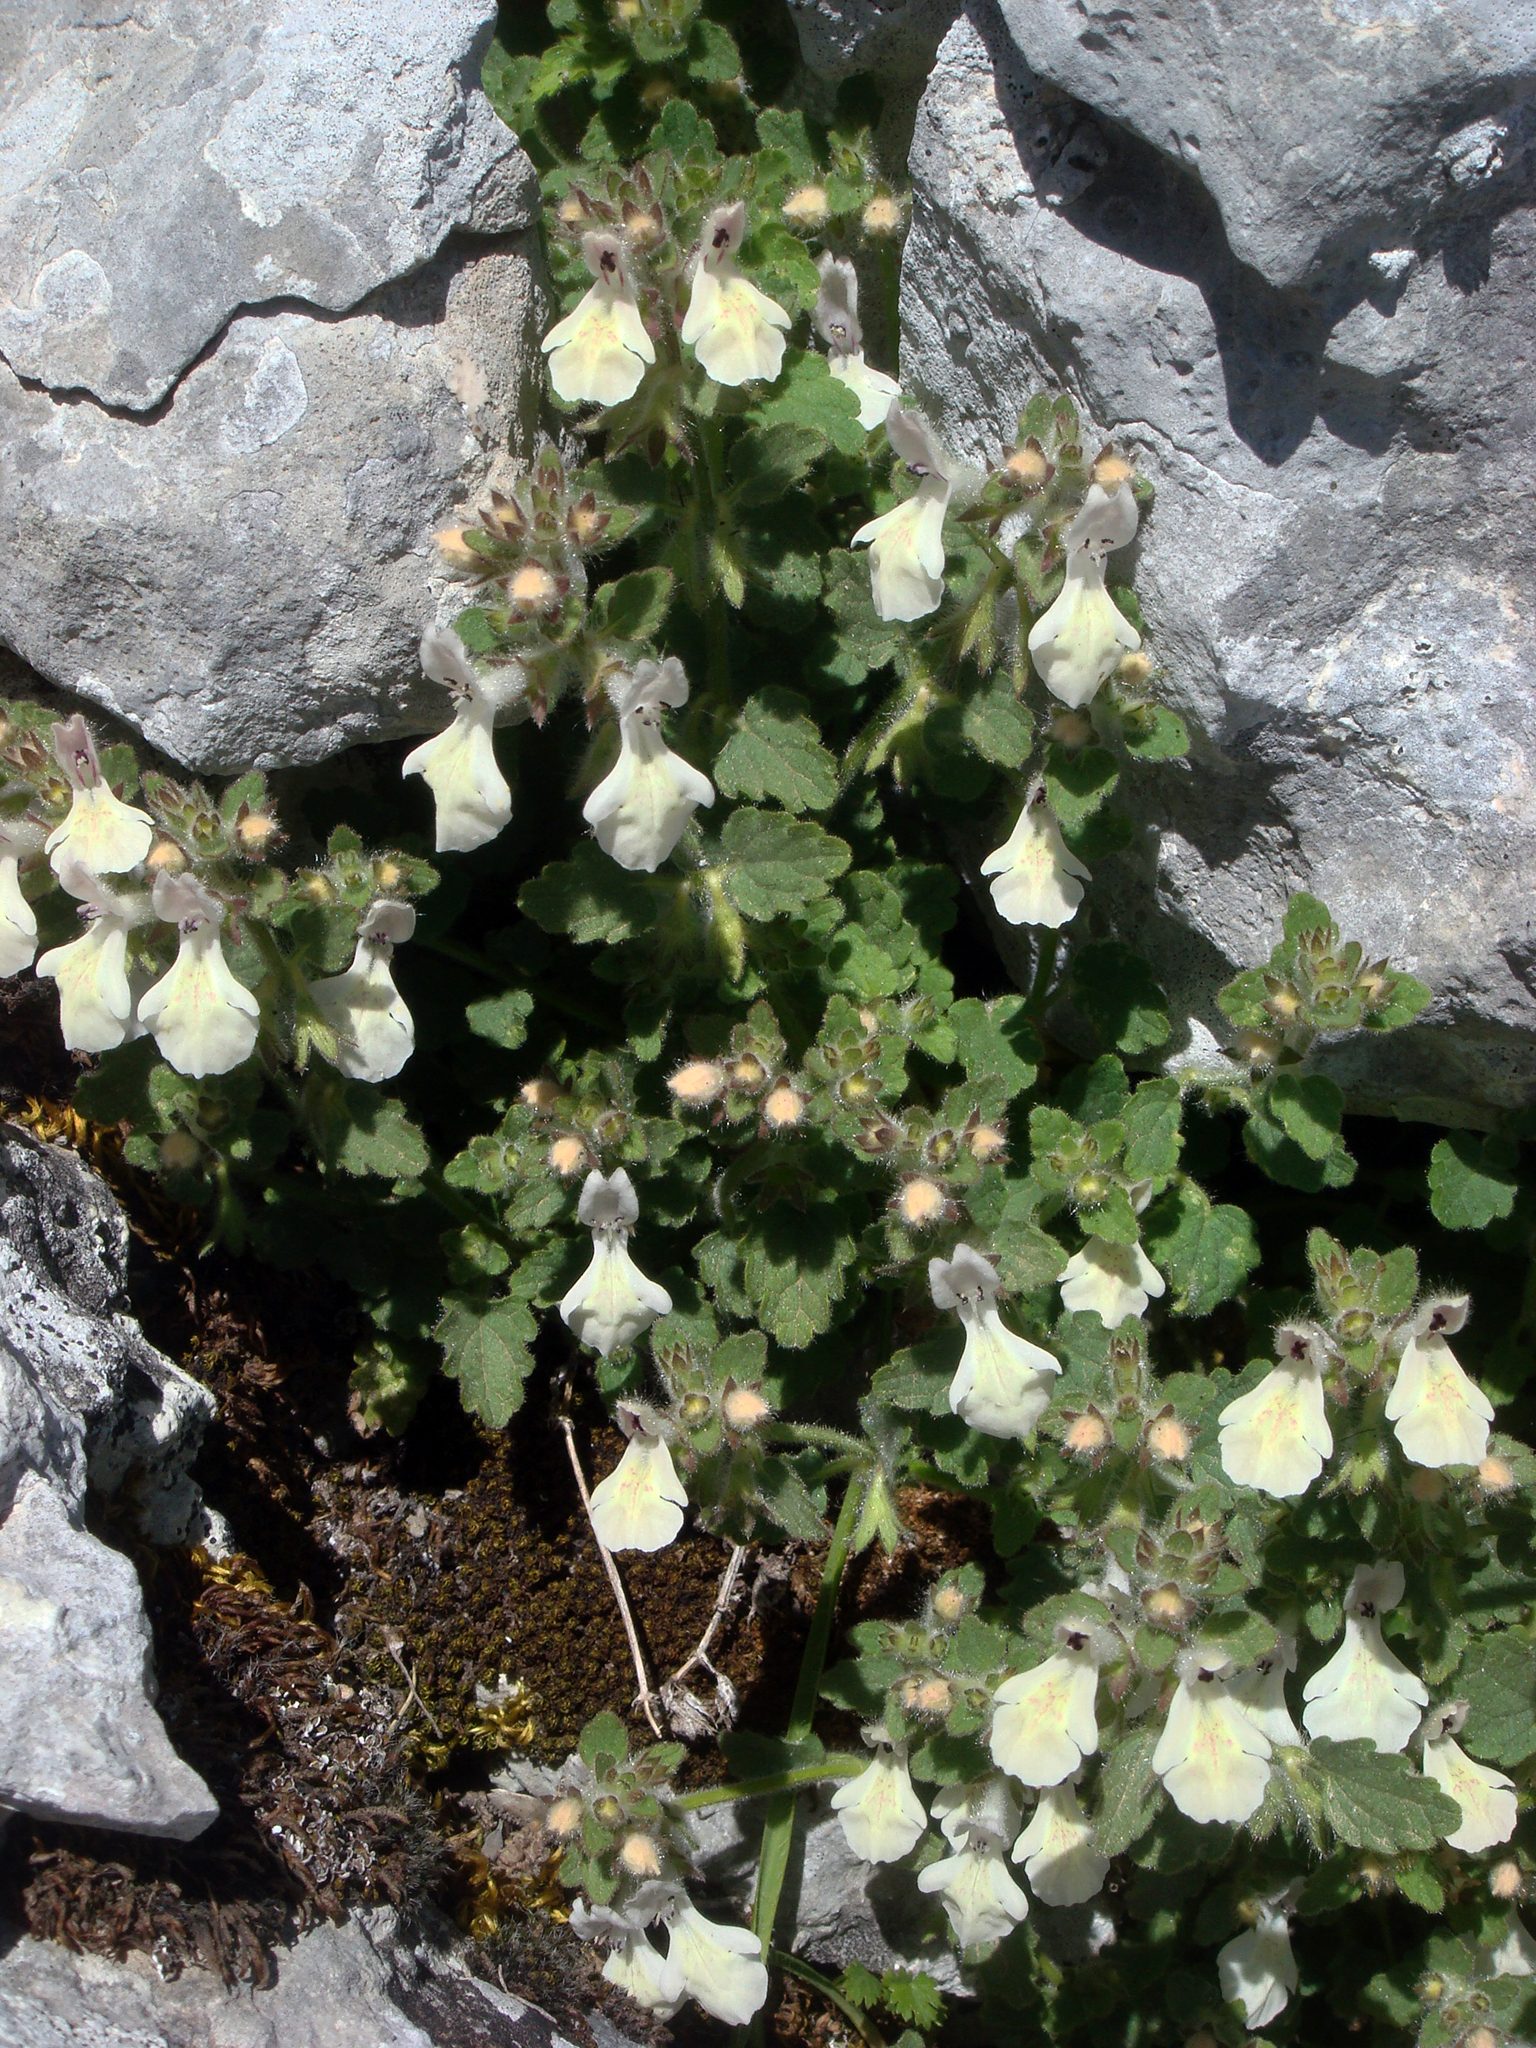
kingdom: Plantae
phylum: Tracheophyta
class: Magnoliopsida
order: Lamiales
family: Lamiaceae
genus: Stachys
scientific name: Stachys corsica
